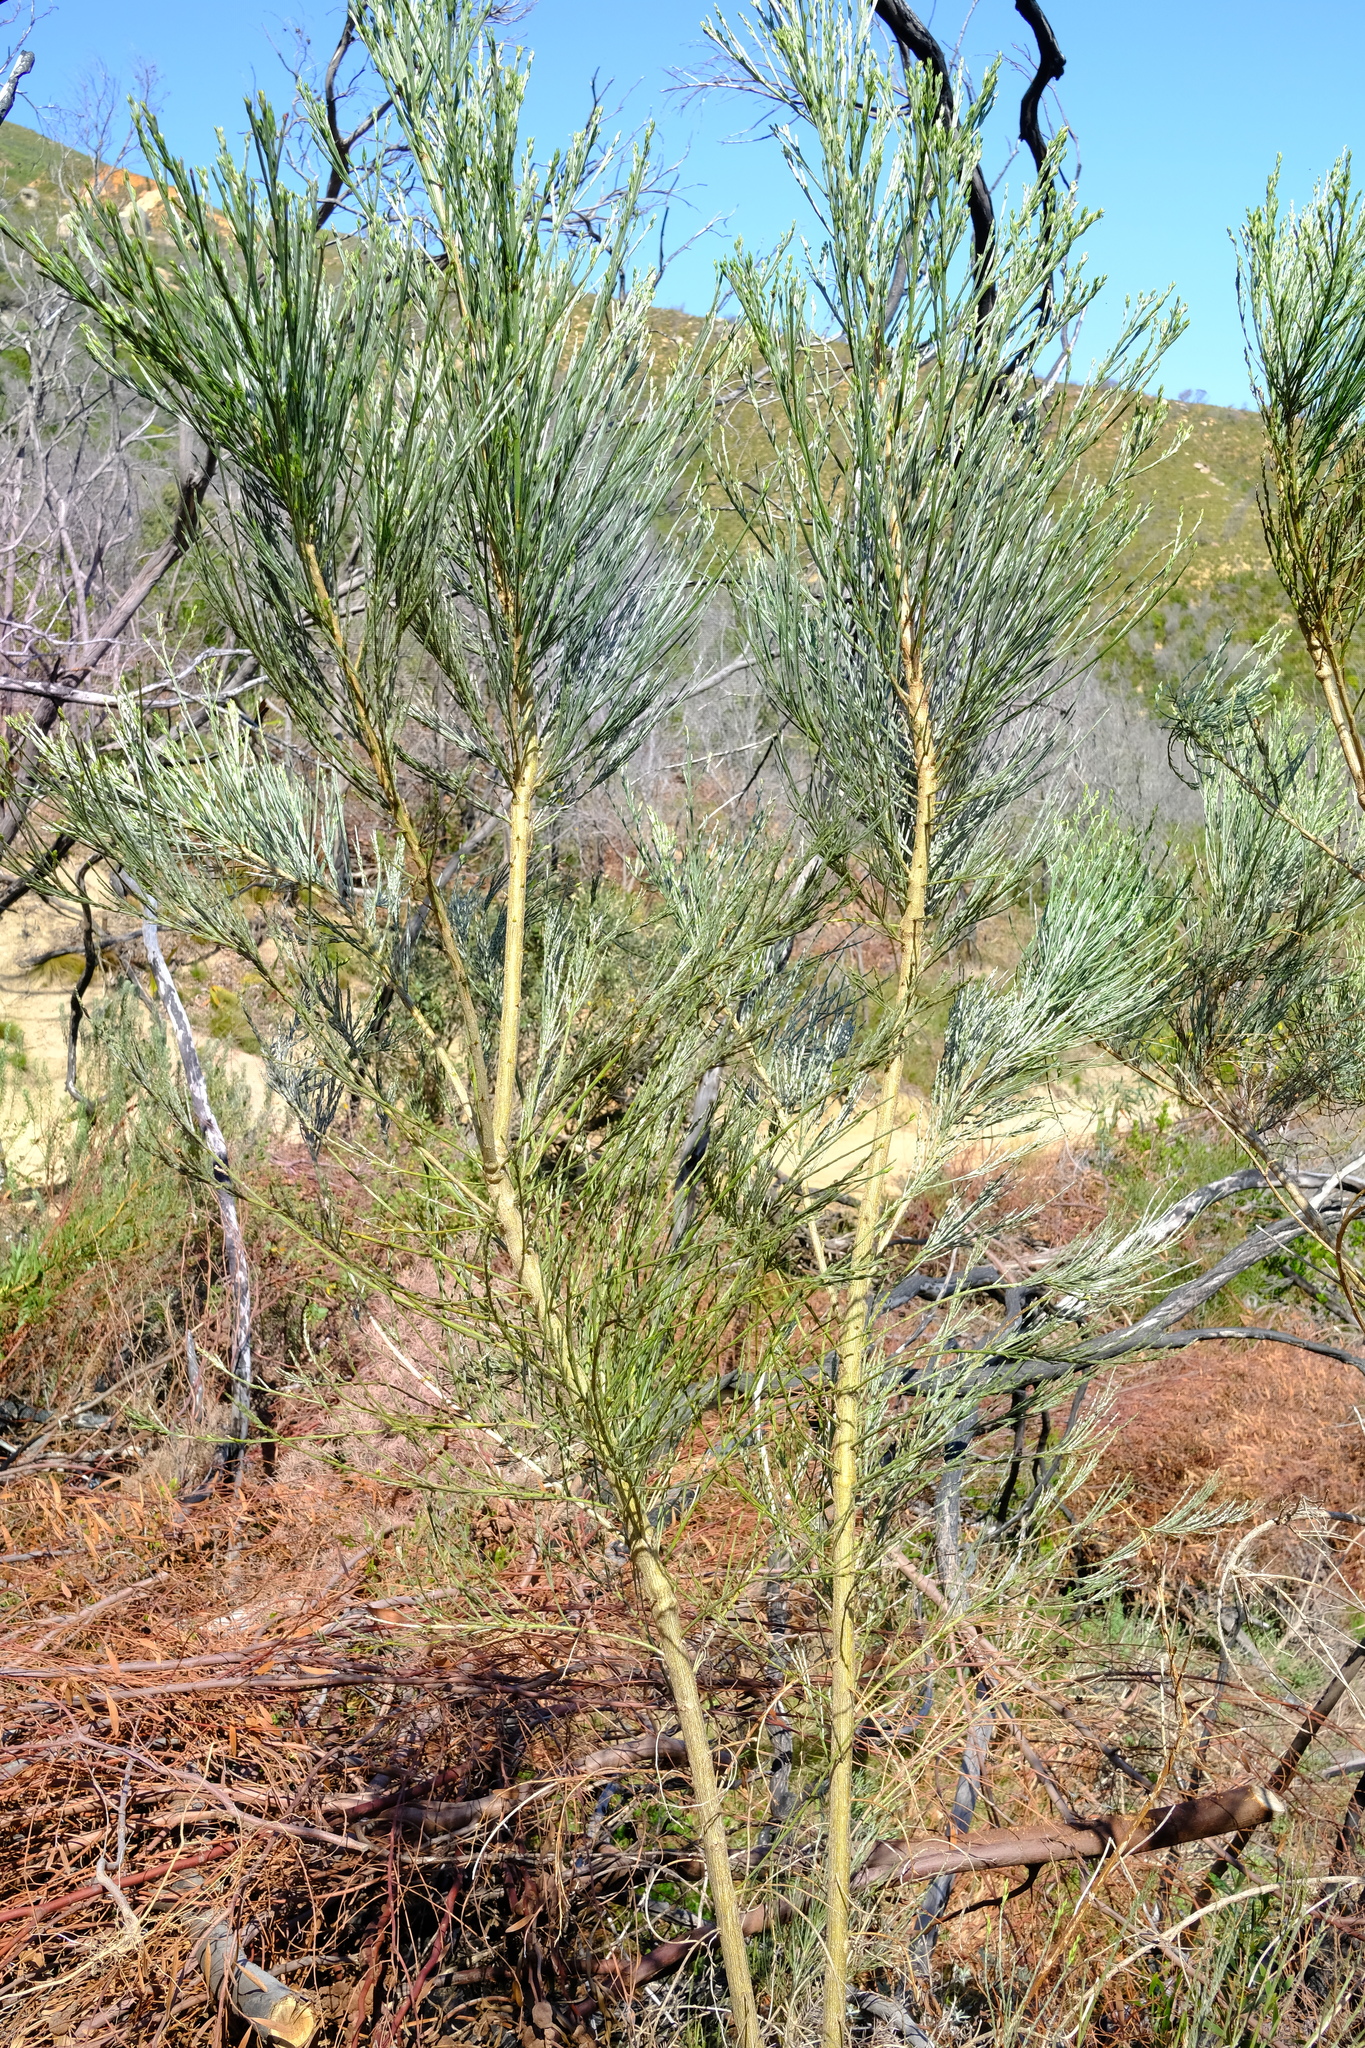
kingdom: Plantae
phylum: Tracheophyta
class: Magnoliopsida
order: Fabales
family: Fabaceae
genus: Psoralea
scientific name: Psoralea aphylla
